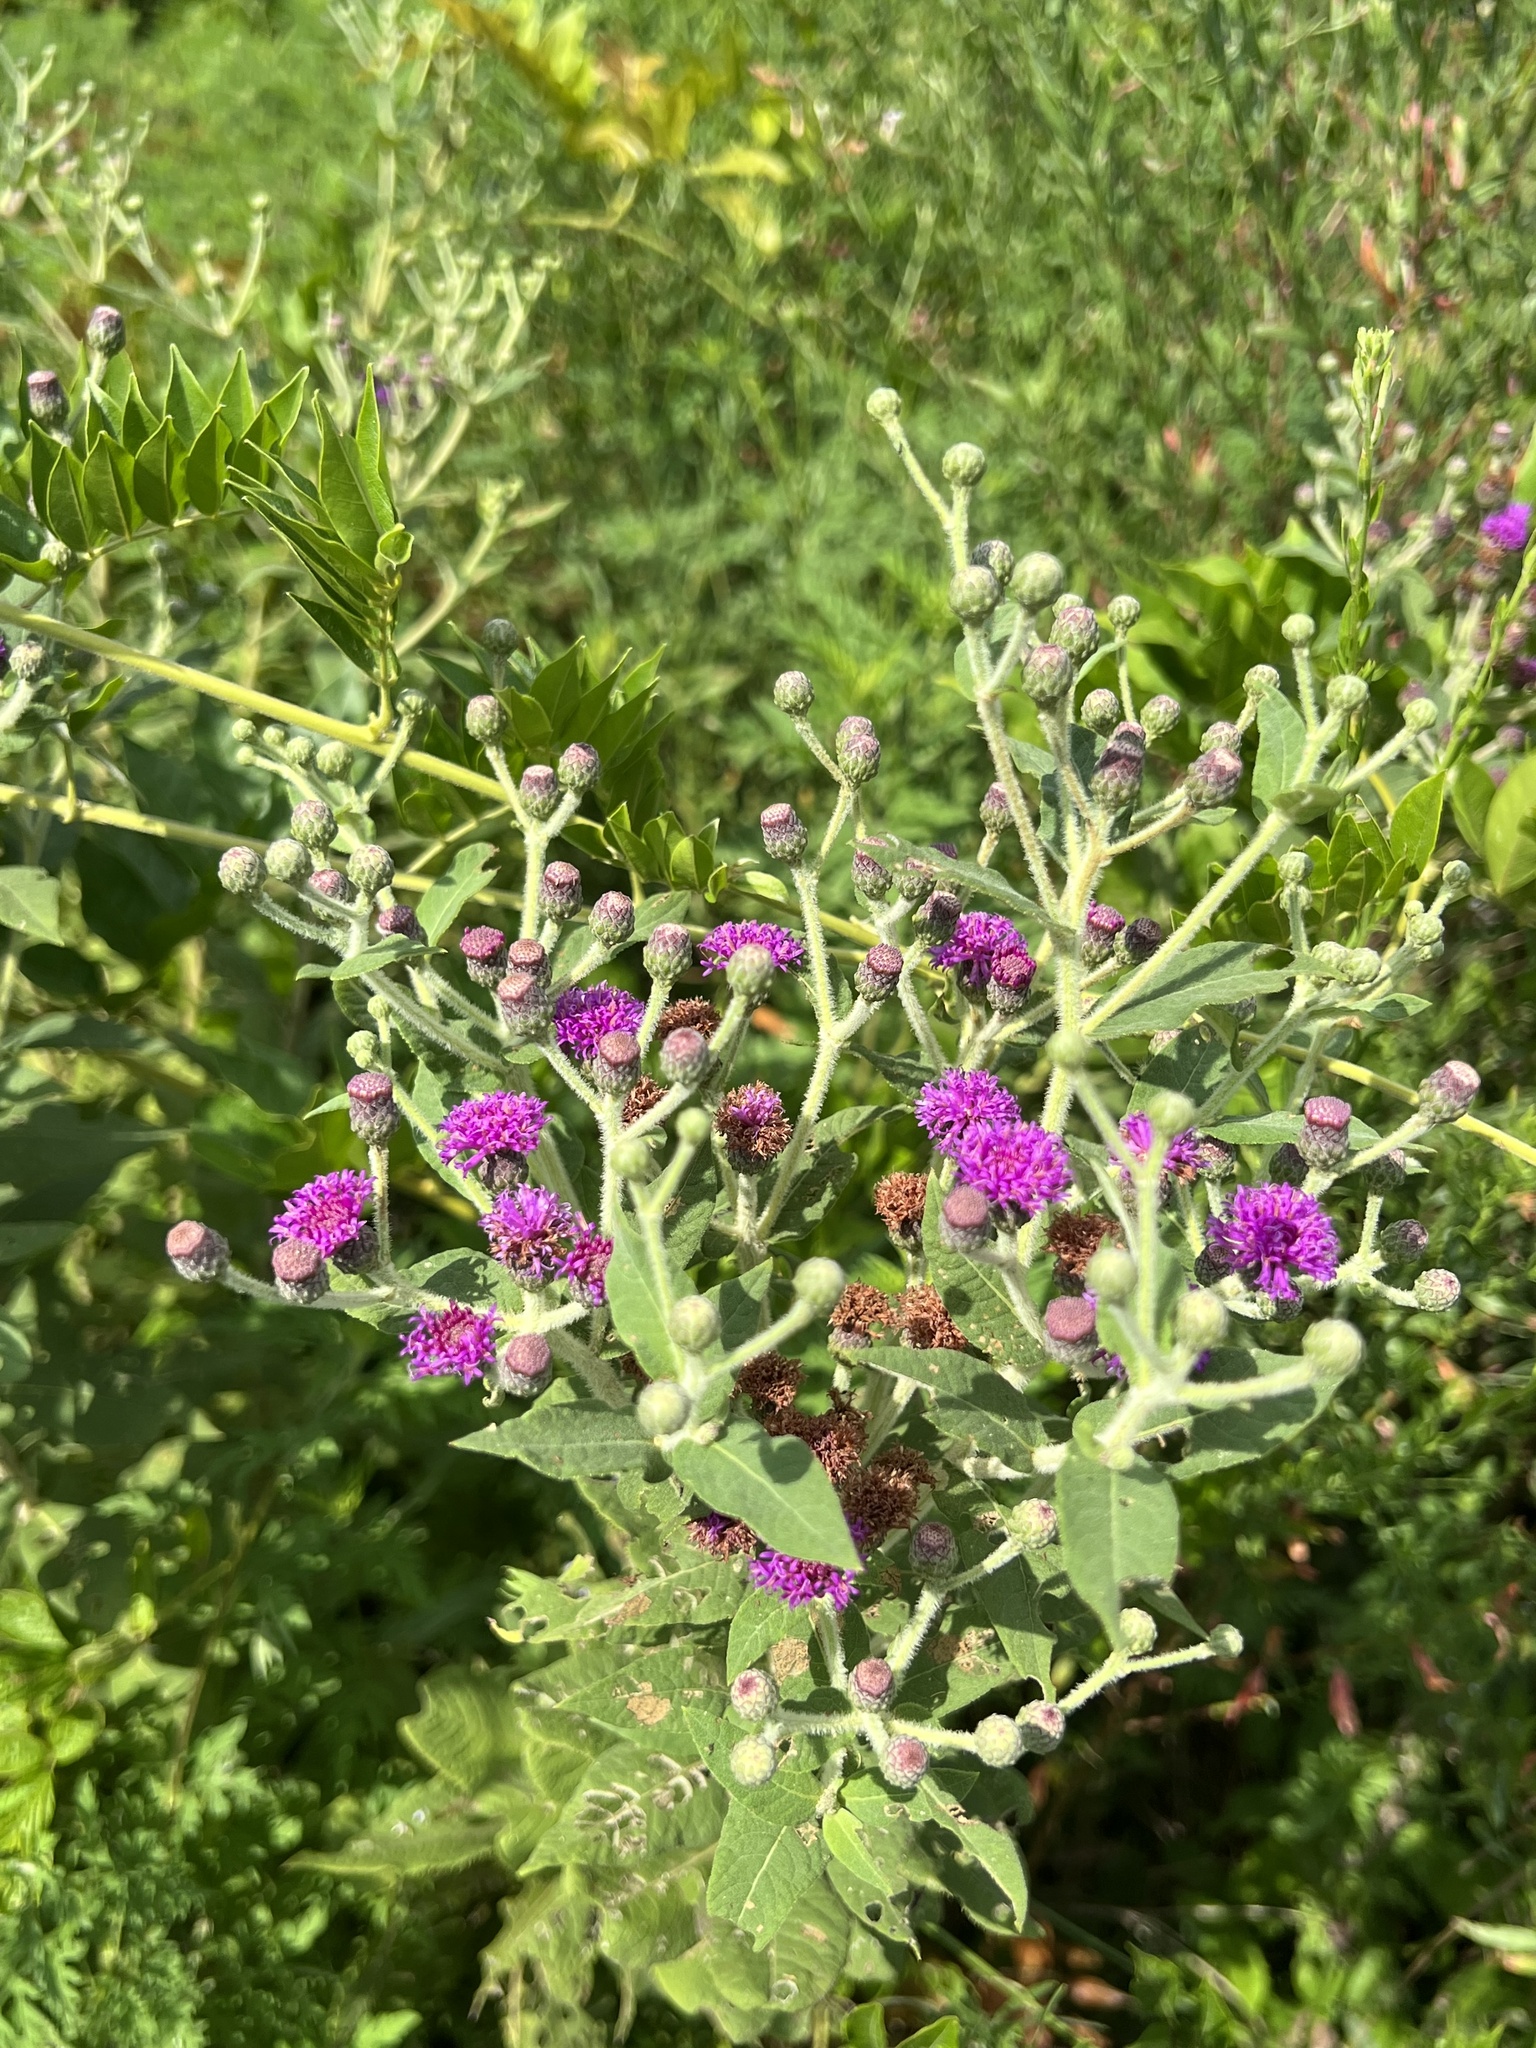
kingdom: Plantae
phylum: Tracheophyta
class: Magnoliopsida
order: Asterales
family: Asteraceae
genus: Vernonia
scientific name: Vernonia missurica
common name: Missouri ironweed
